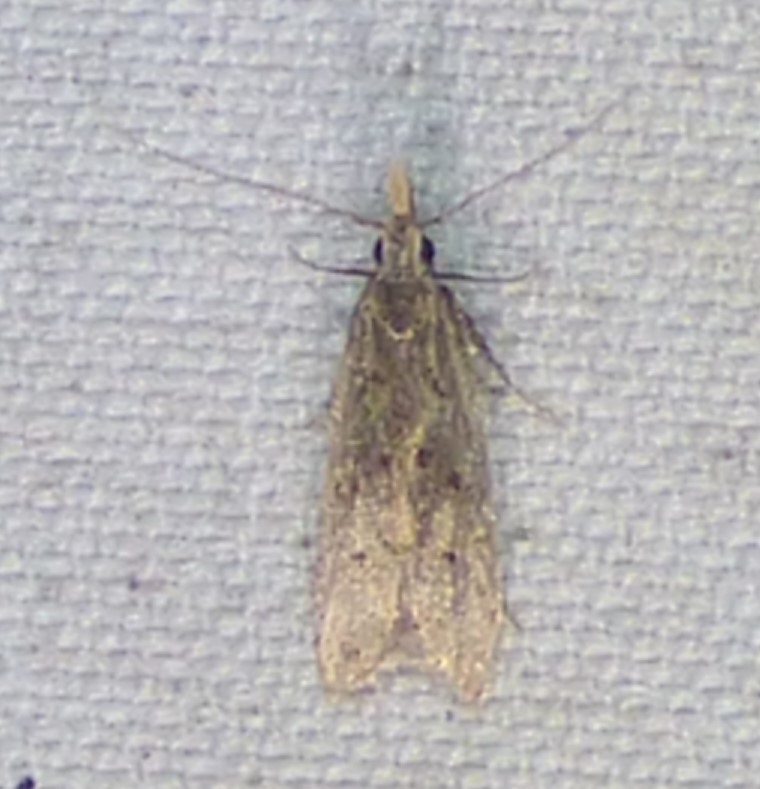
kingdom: Animalia
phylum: Arthropoda
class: Insecta
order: Lepidoptera
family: Gelechiidae
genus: Dichomeris
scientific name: Dichomeris punctipennella
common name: Many-spotted dichomeris moth
